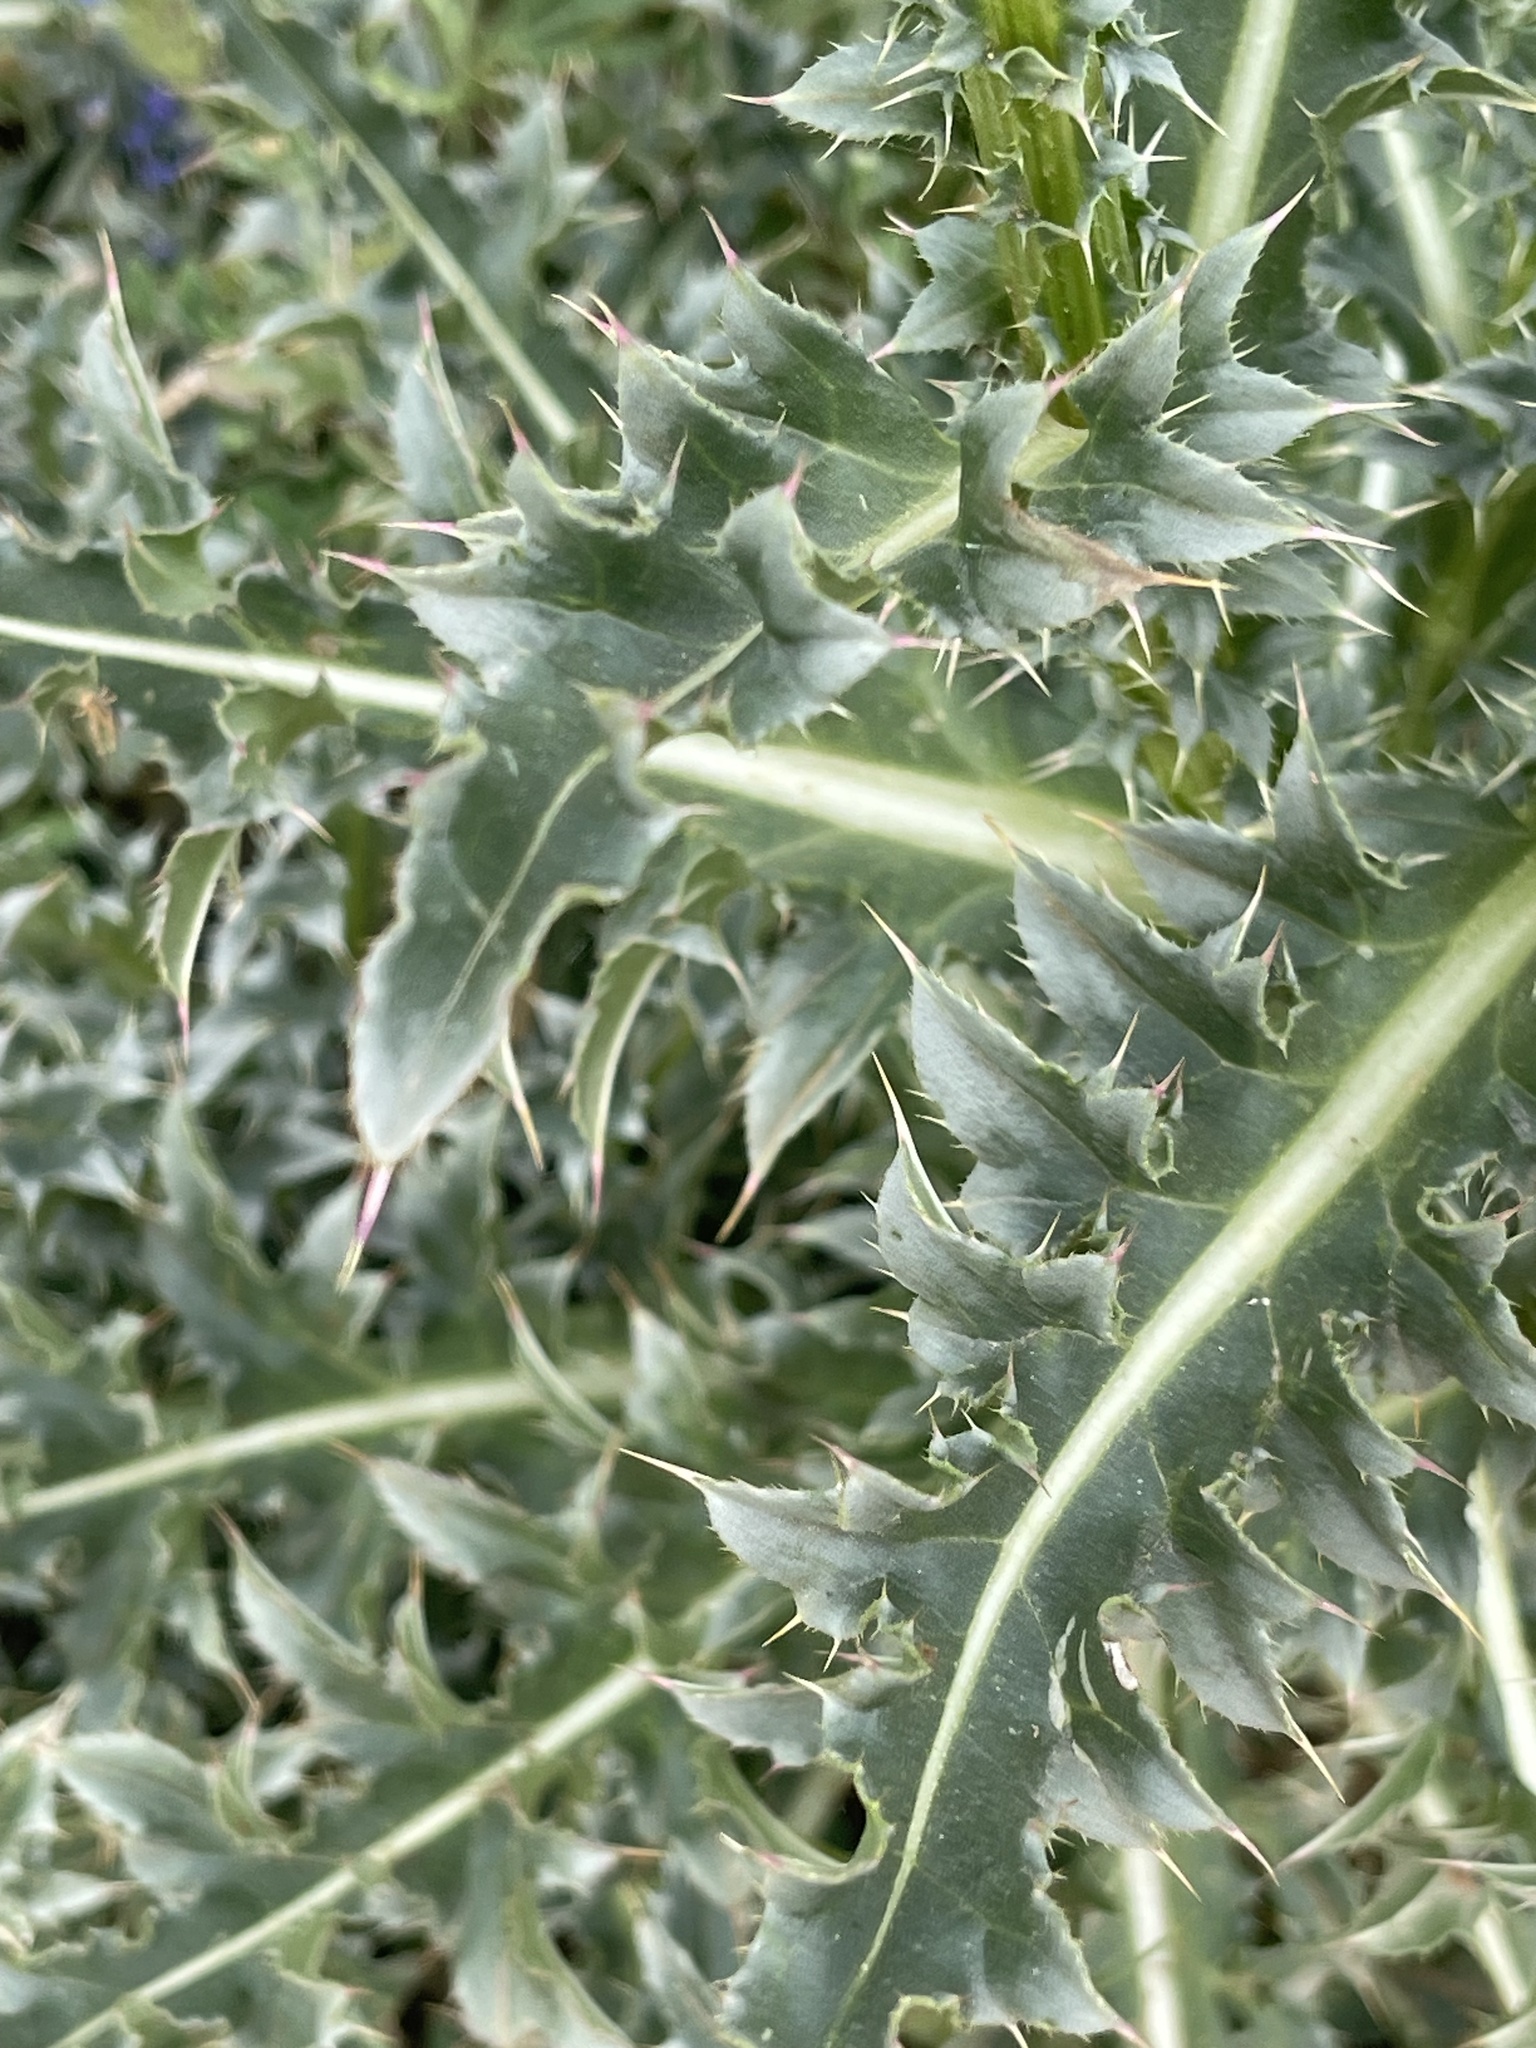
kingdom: Plantae
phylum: Tracheophyta
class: Magnoliopsida
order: Asterales
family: Asteraceae
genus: Carduus
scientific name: Carduus nutans
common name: Musk thistle
